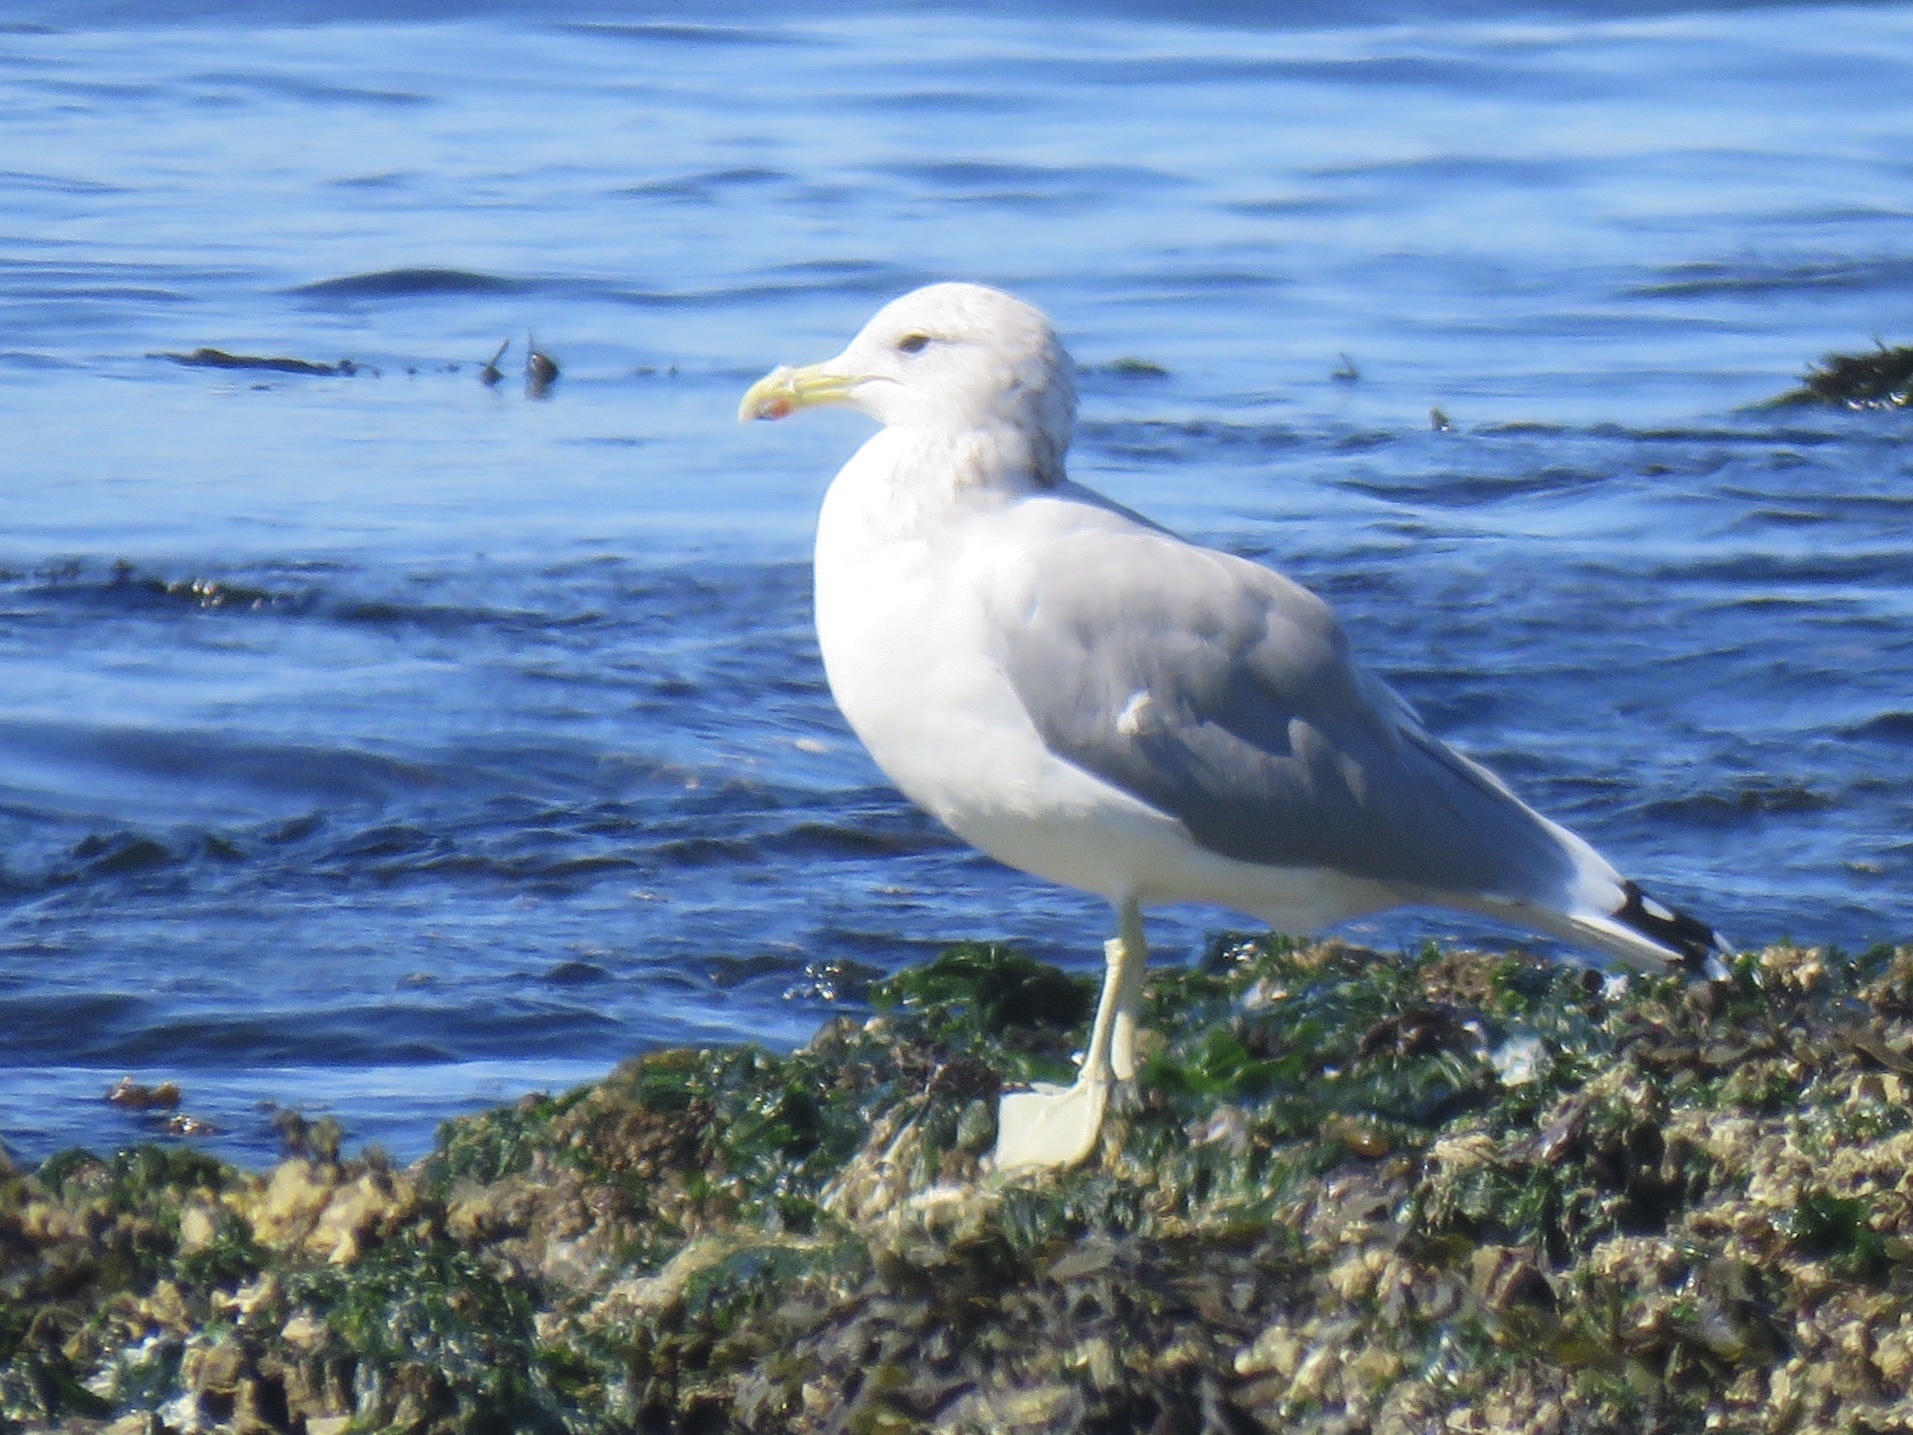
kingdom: Animalia
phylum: Chordata
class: Aves
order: Charadriiformes
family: Laridae
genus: Larus
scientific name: Larus californicus
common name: California gull
